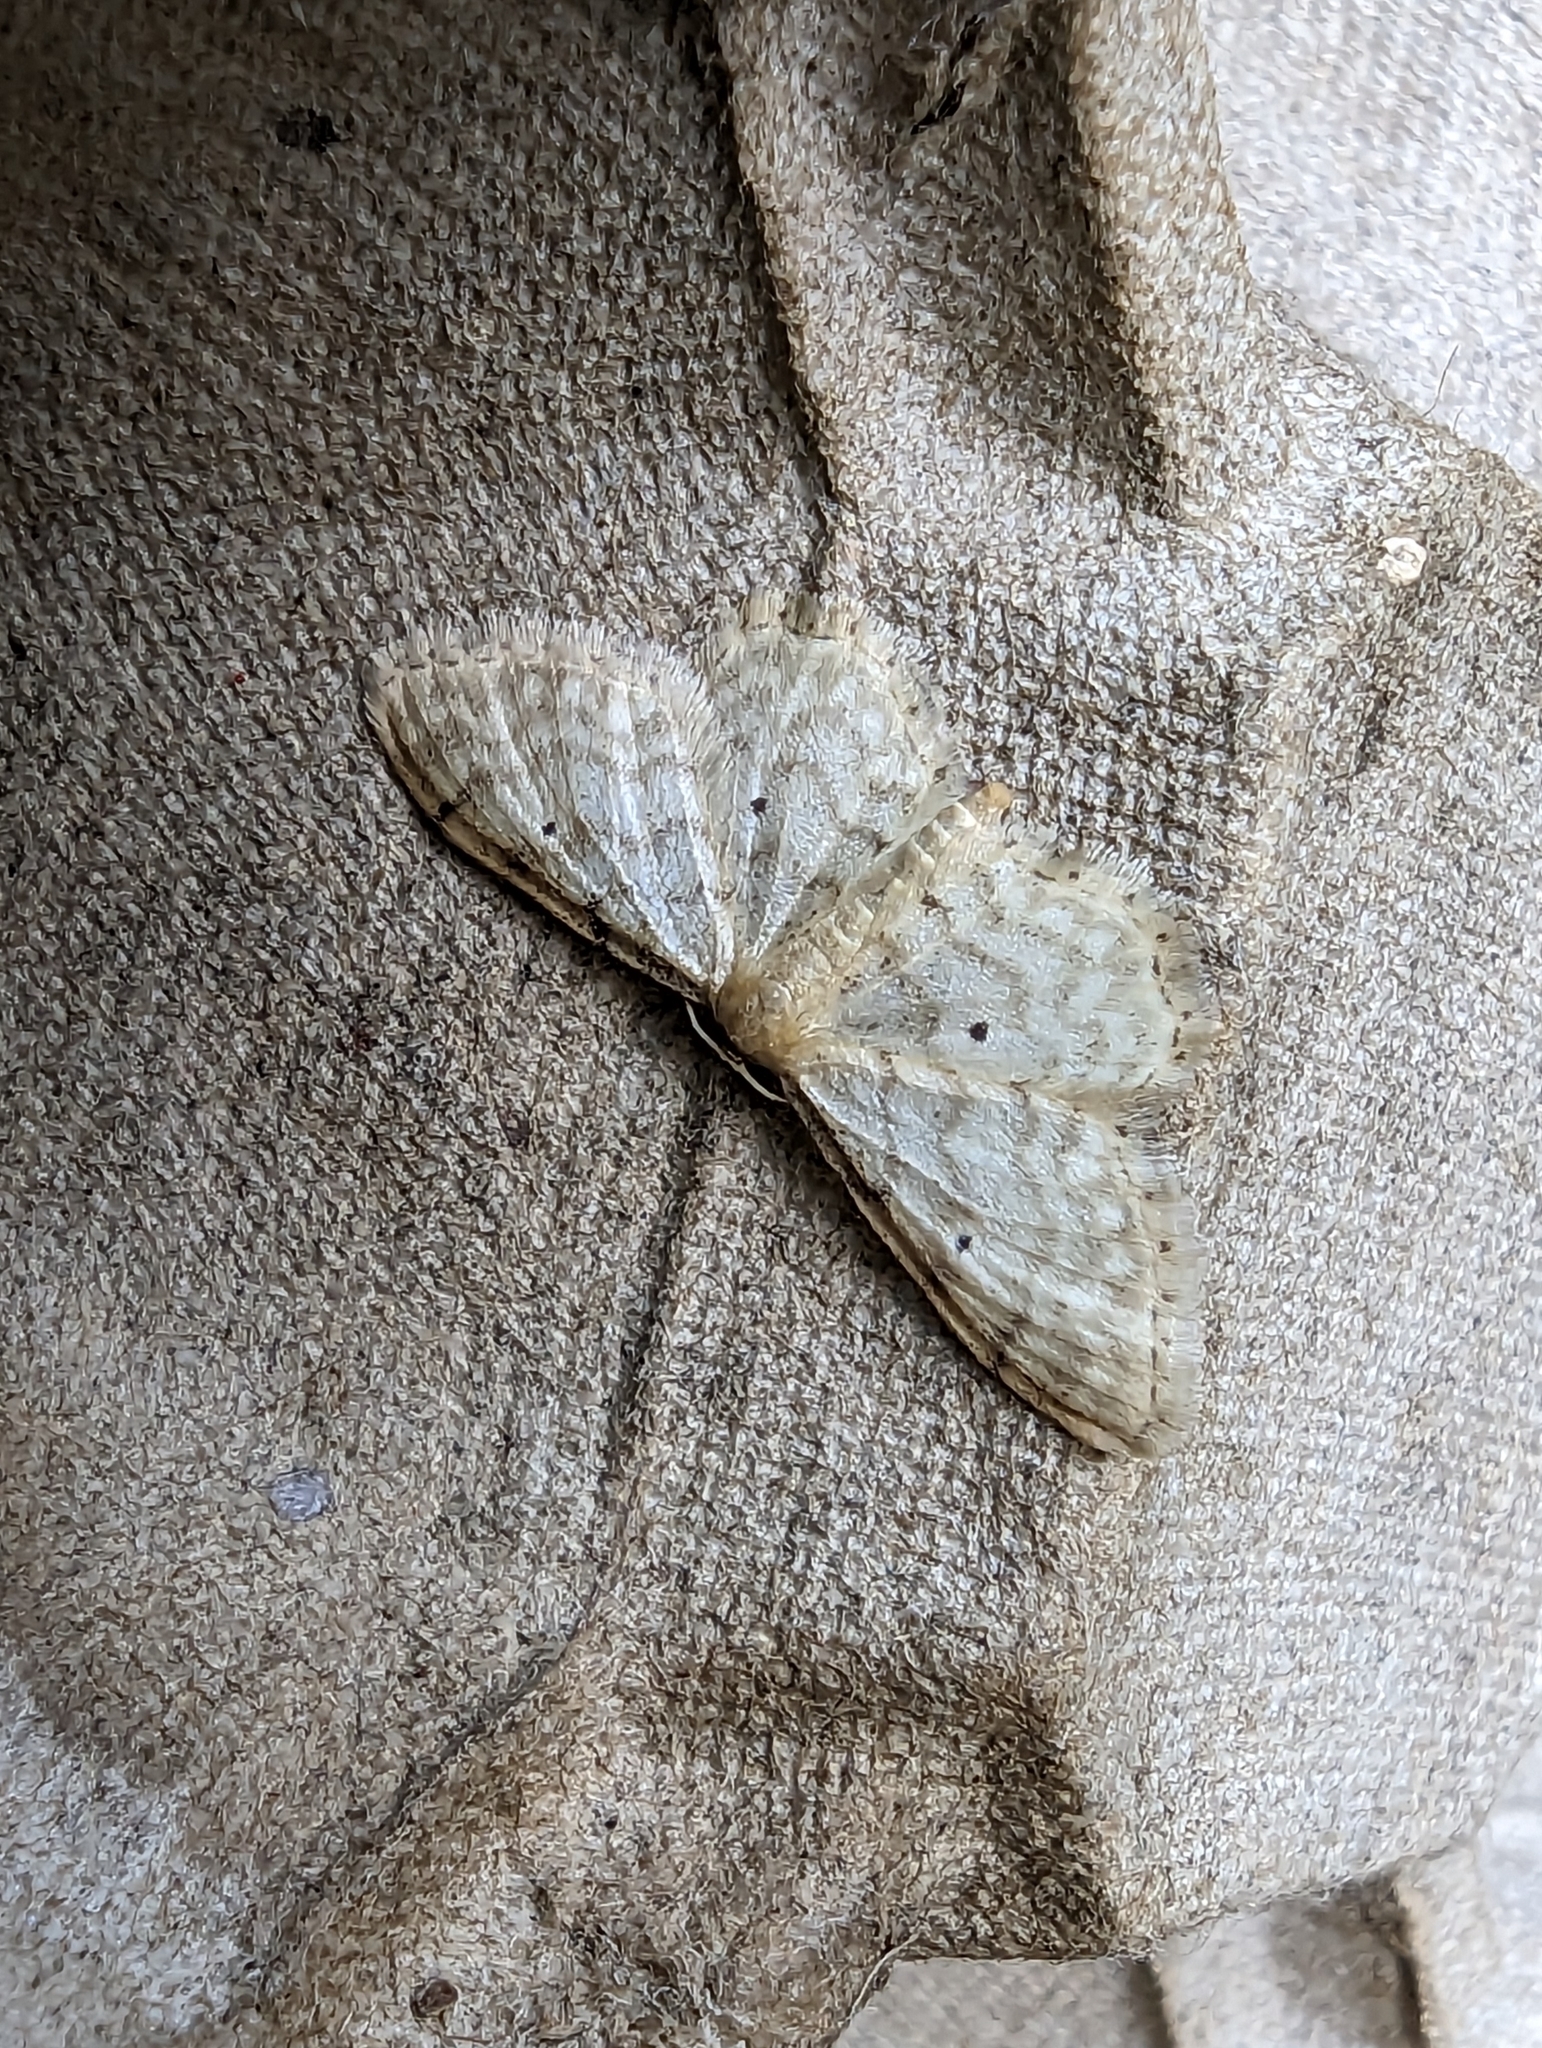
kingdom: Animalia
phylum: Arthropoda
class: Insecta
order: Lepidoptera
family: Geometridae
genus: Idaea
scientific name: Idaea fuscovenosa
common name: Dwarf cream wave
